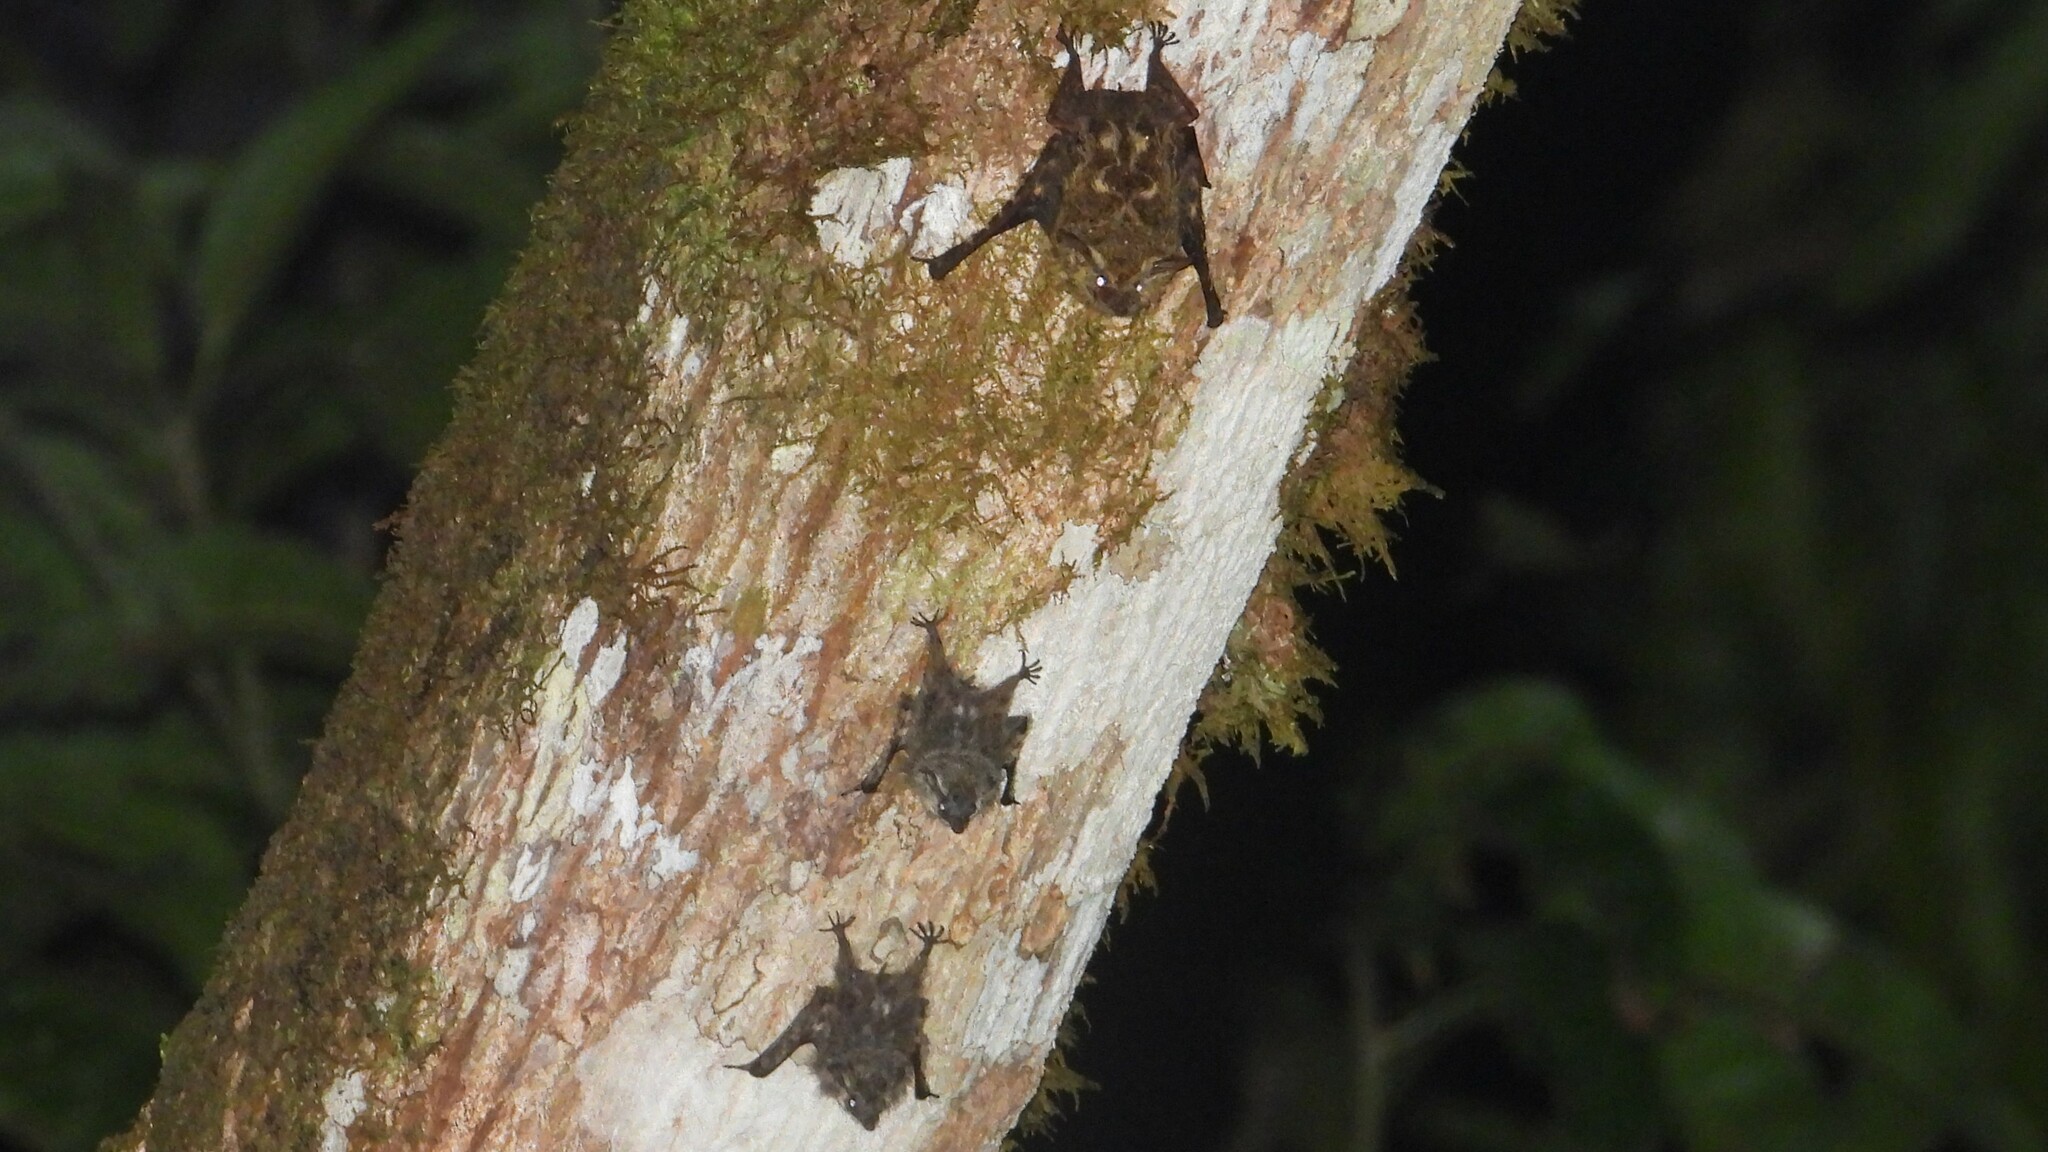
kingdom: Animalia
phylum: Chordata
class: Mammalia
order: Chiroptera
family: Emballonuridae
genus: Rhynchonycteris
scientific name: Rhynchonycteris naso
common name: Proboscis bat
